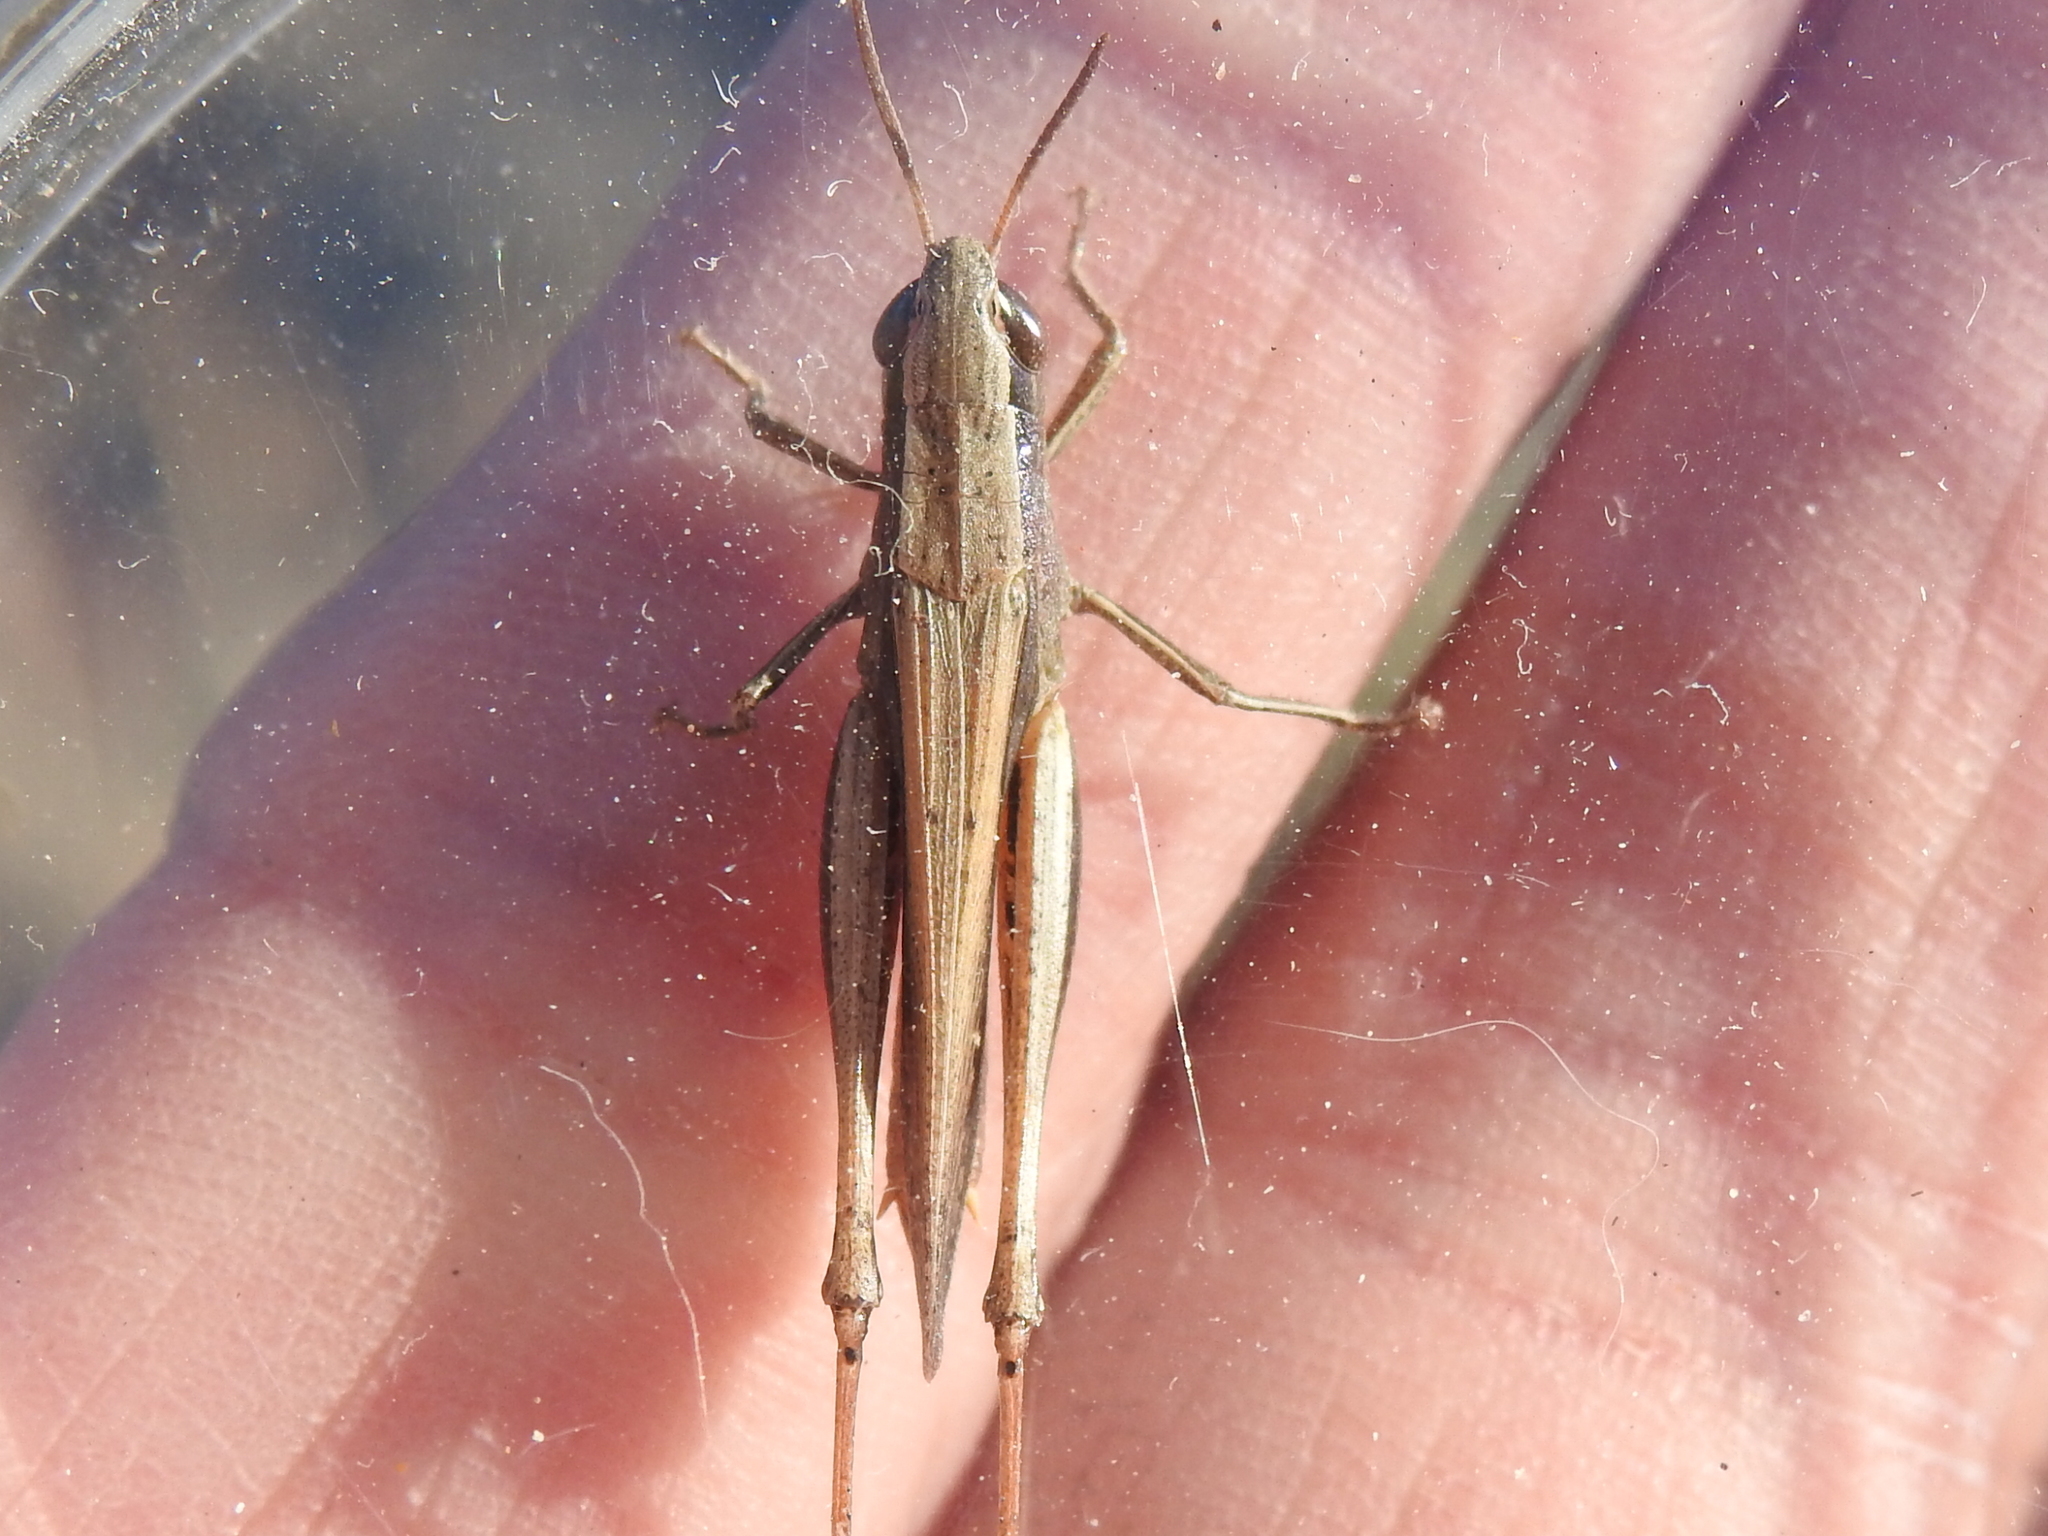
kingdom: Animalia
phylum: Arthropoda
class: Insecta
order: Orthoptera
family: Acrididae
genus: Amblytropidia
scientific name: Amblytropidia mysteca
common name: Brown winter grasshopper
